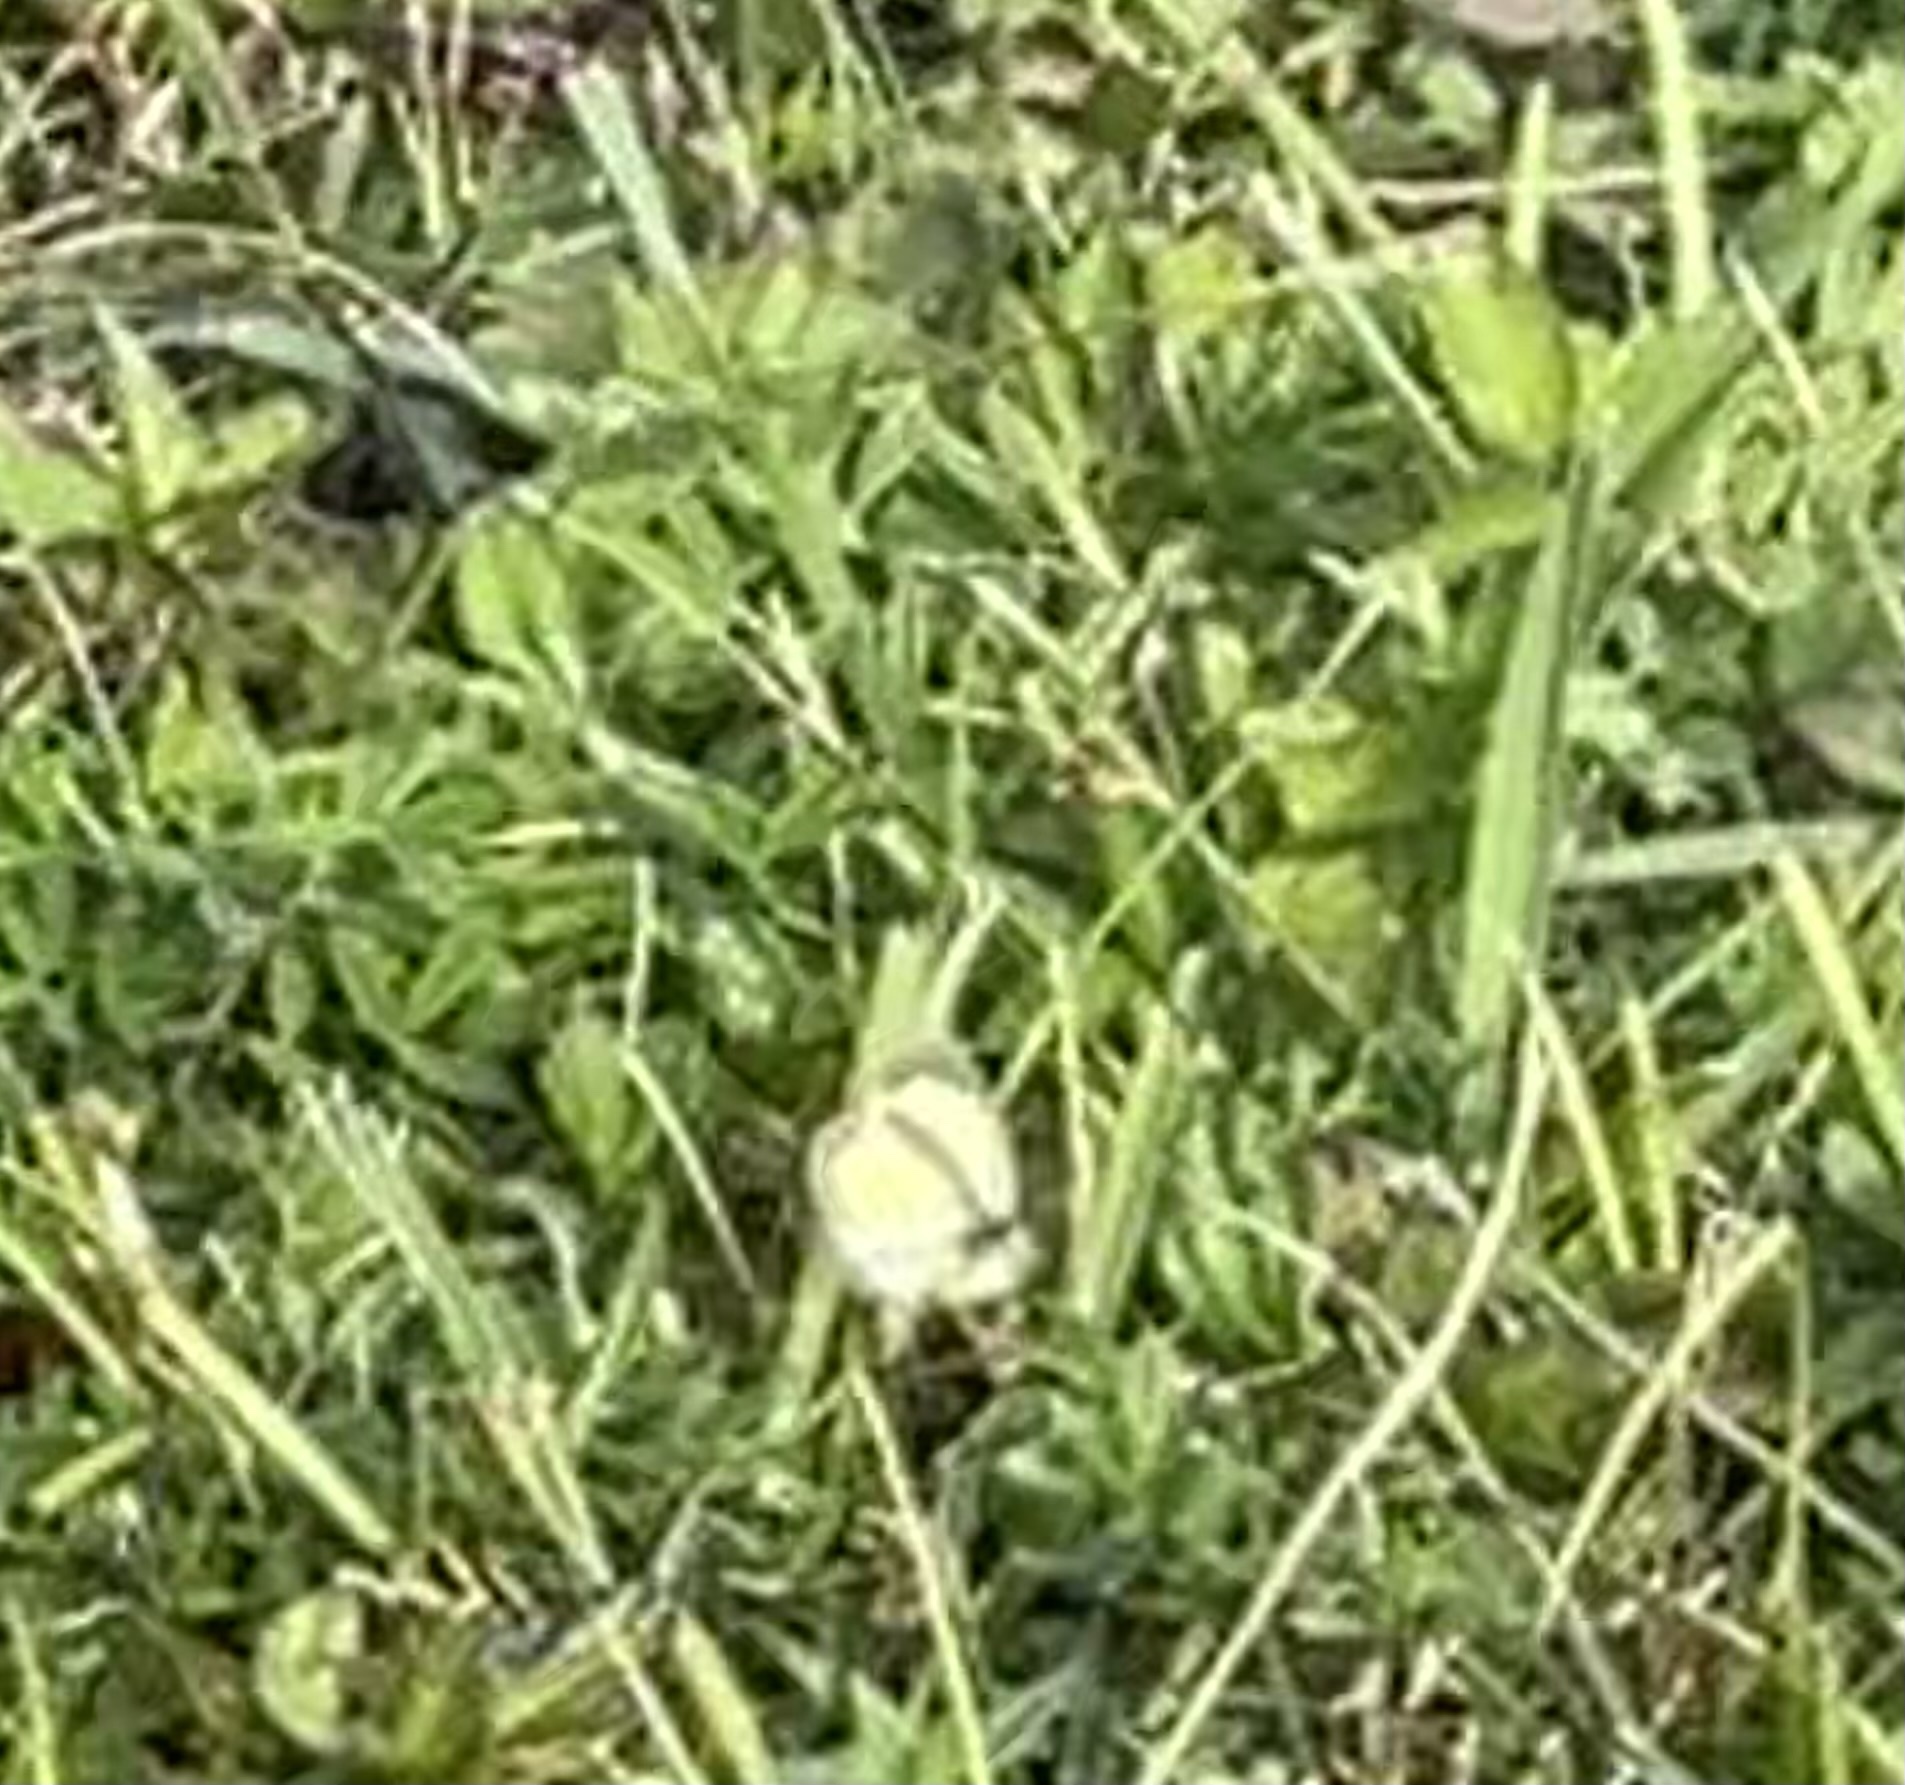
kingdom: Animalia
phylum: Arthropoda
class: Insecta
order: Lepidoptera
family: Pieridae
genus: Eurema
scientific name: Eurema daira
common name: Barred sulphur
